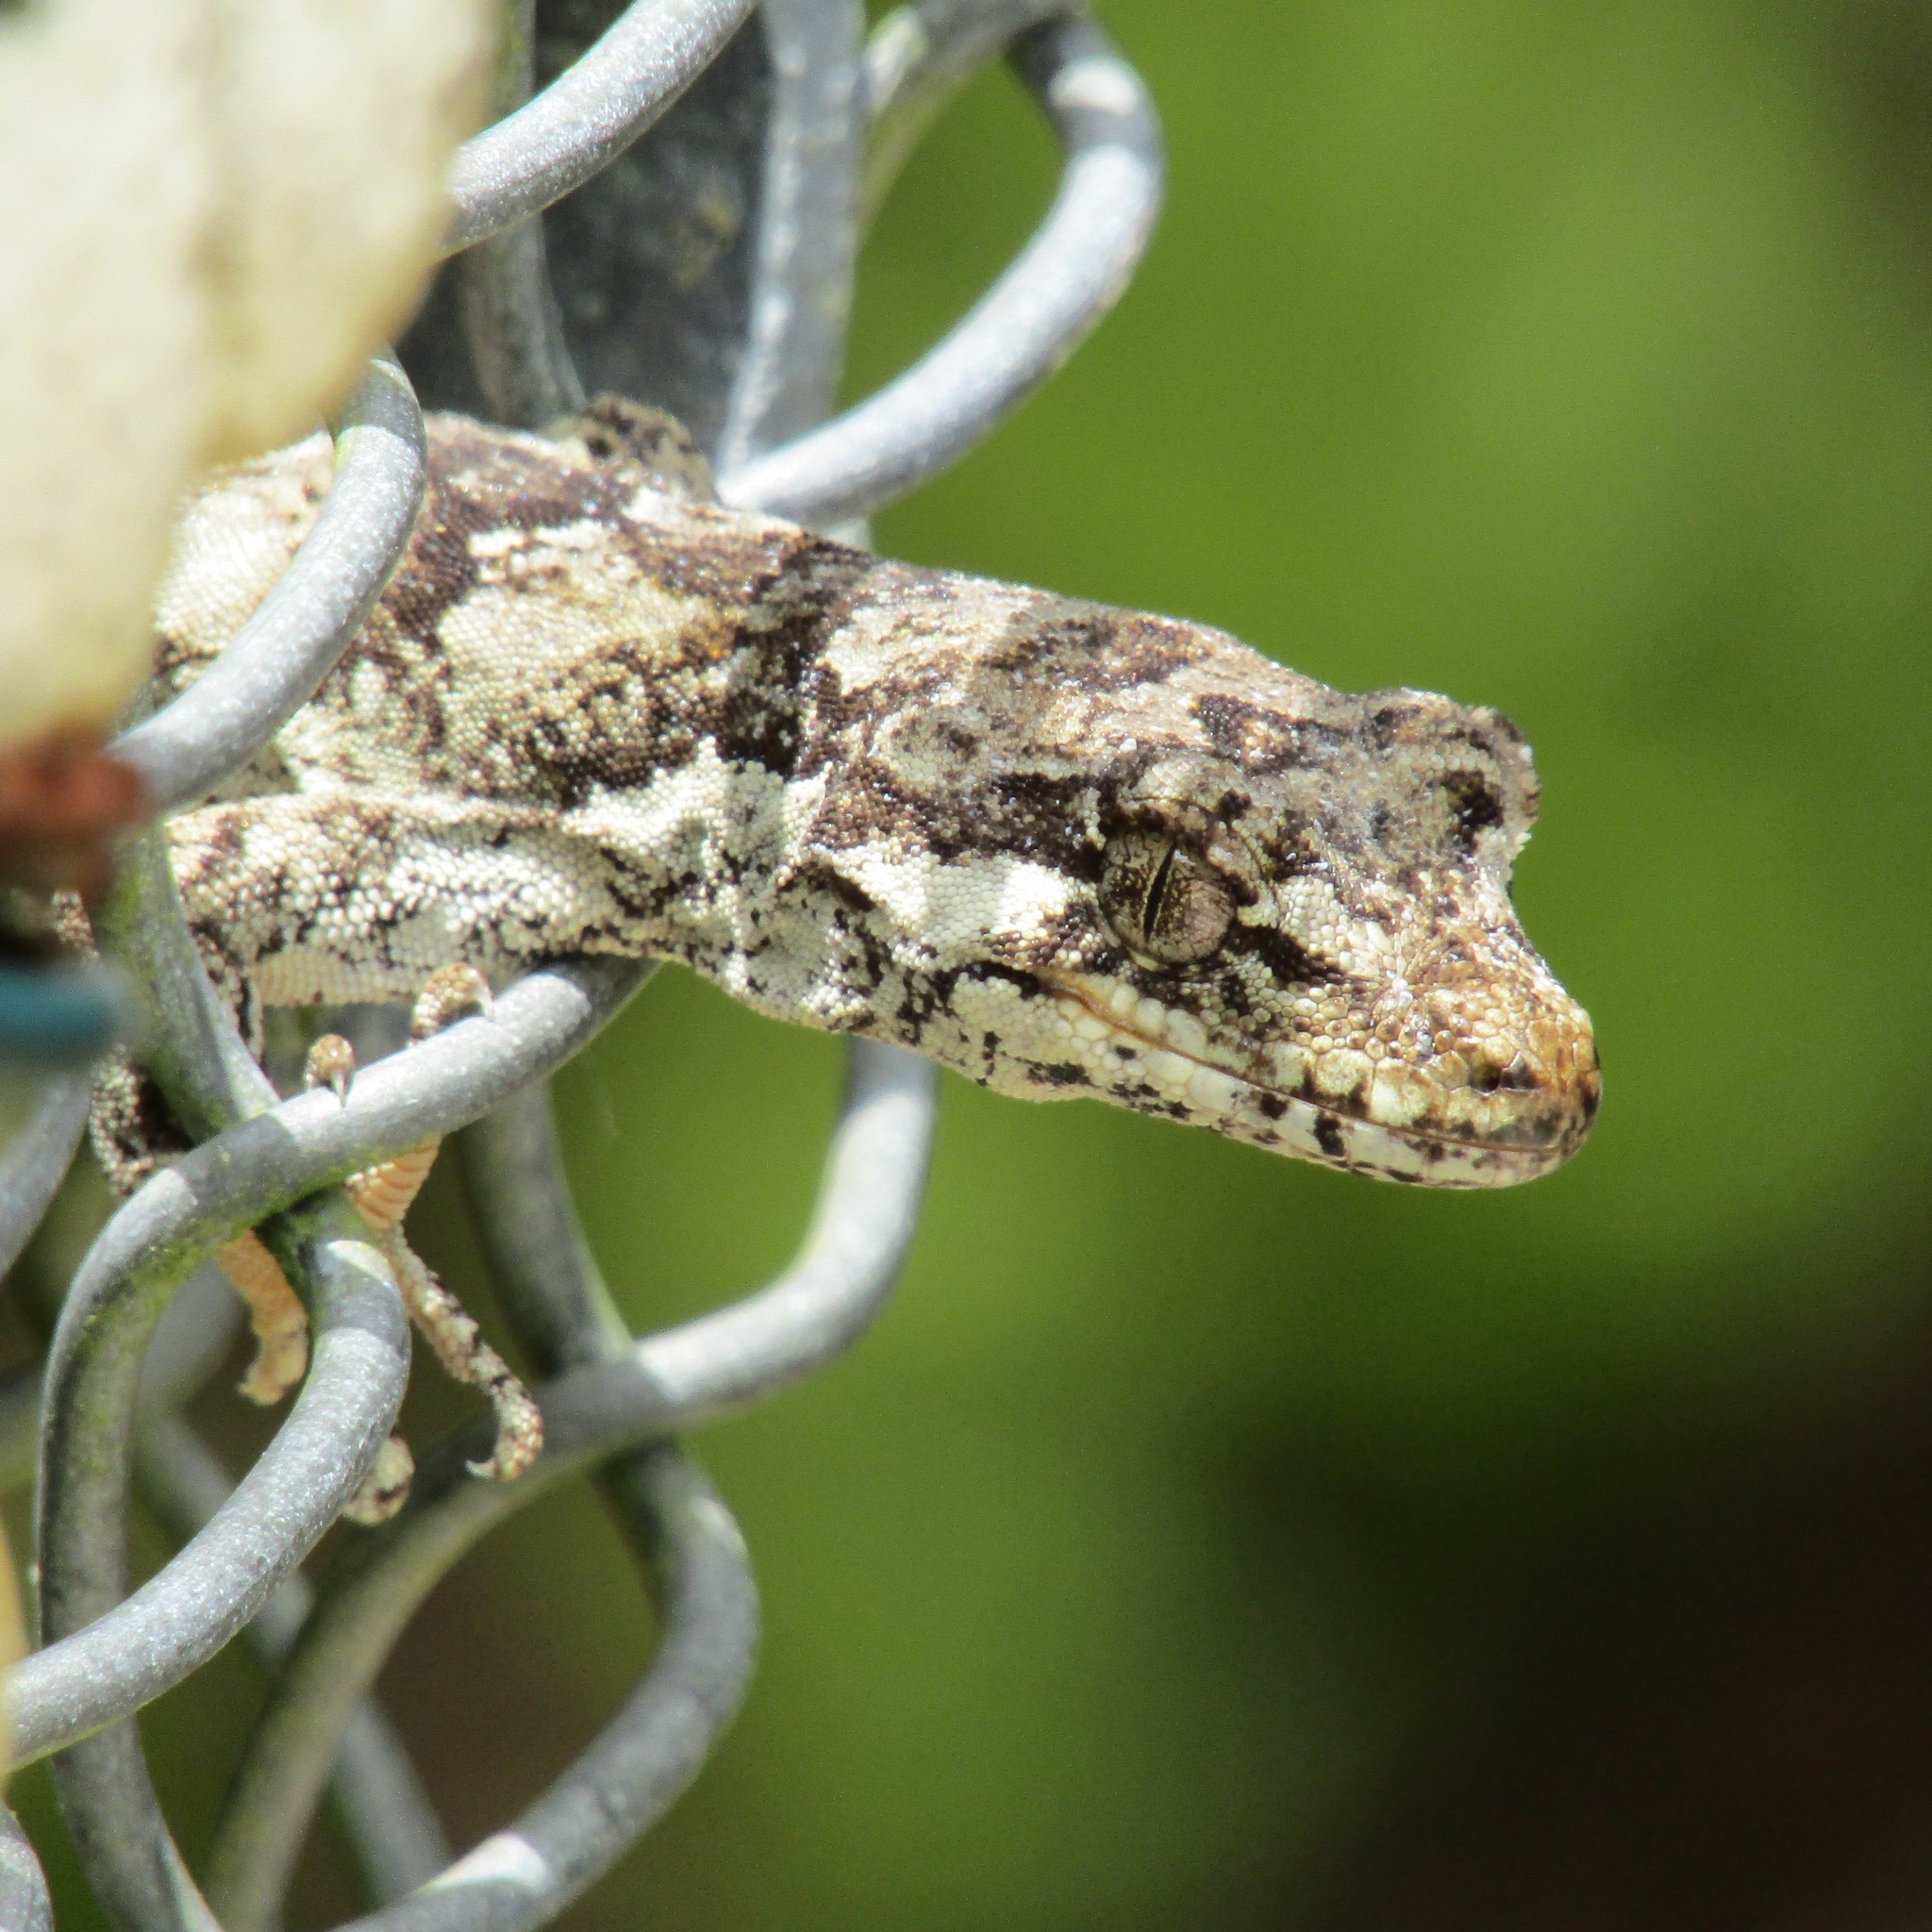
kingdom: Animalia
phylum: Chordata
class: Squamata
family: Diplodactylidae
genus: Mokopirirakau
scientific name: Mokopirirakau
